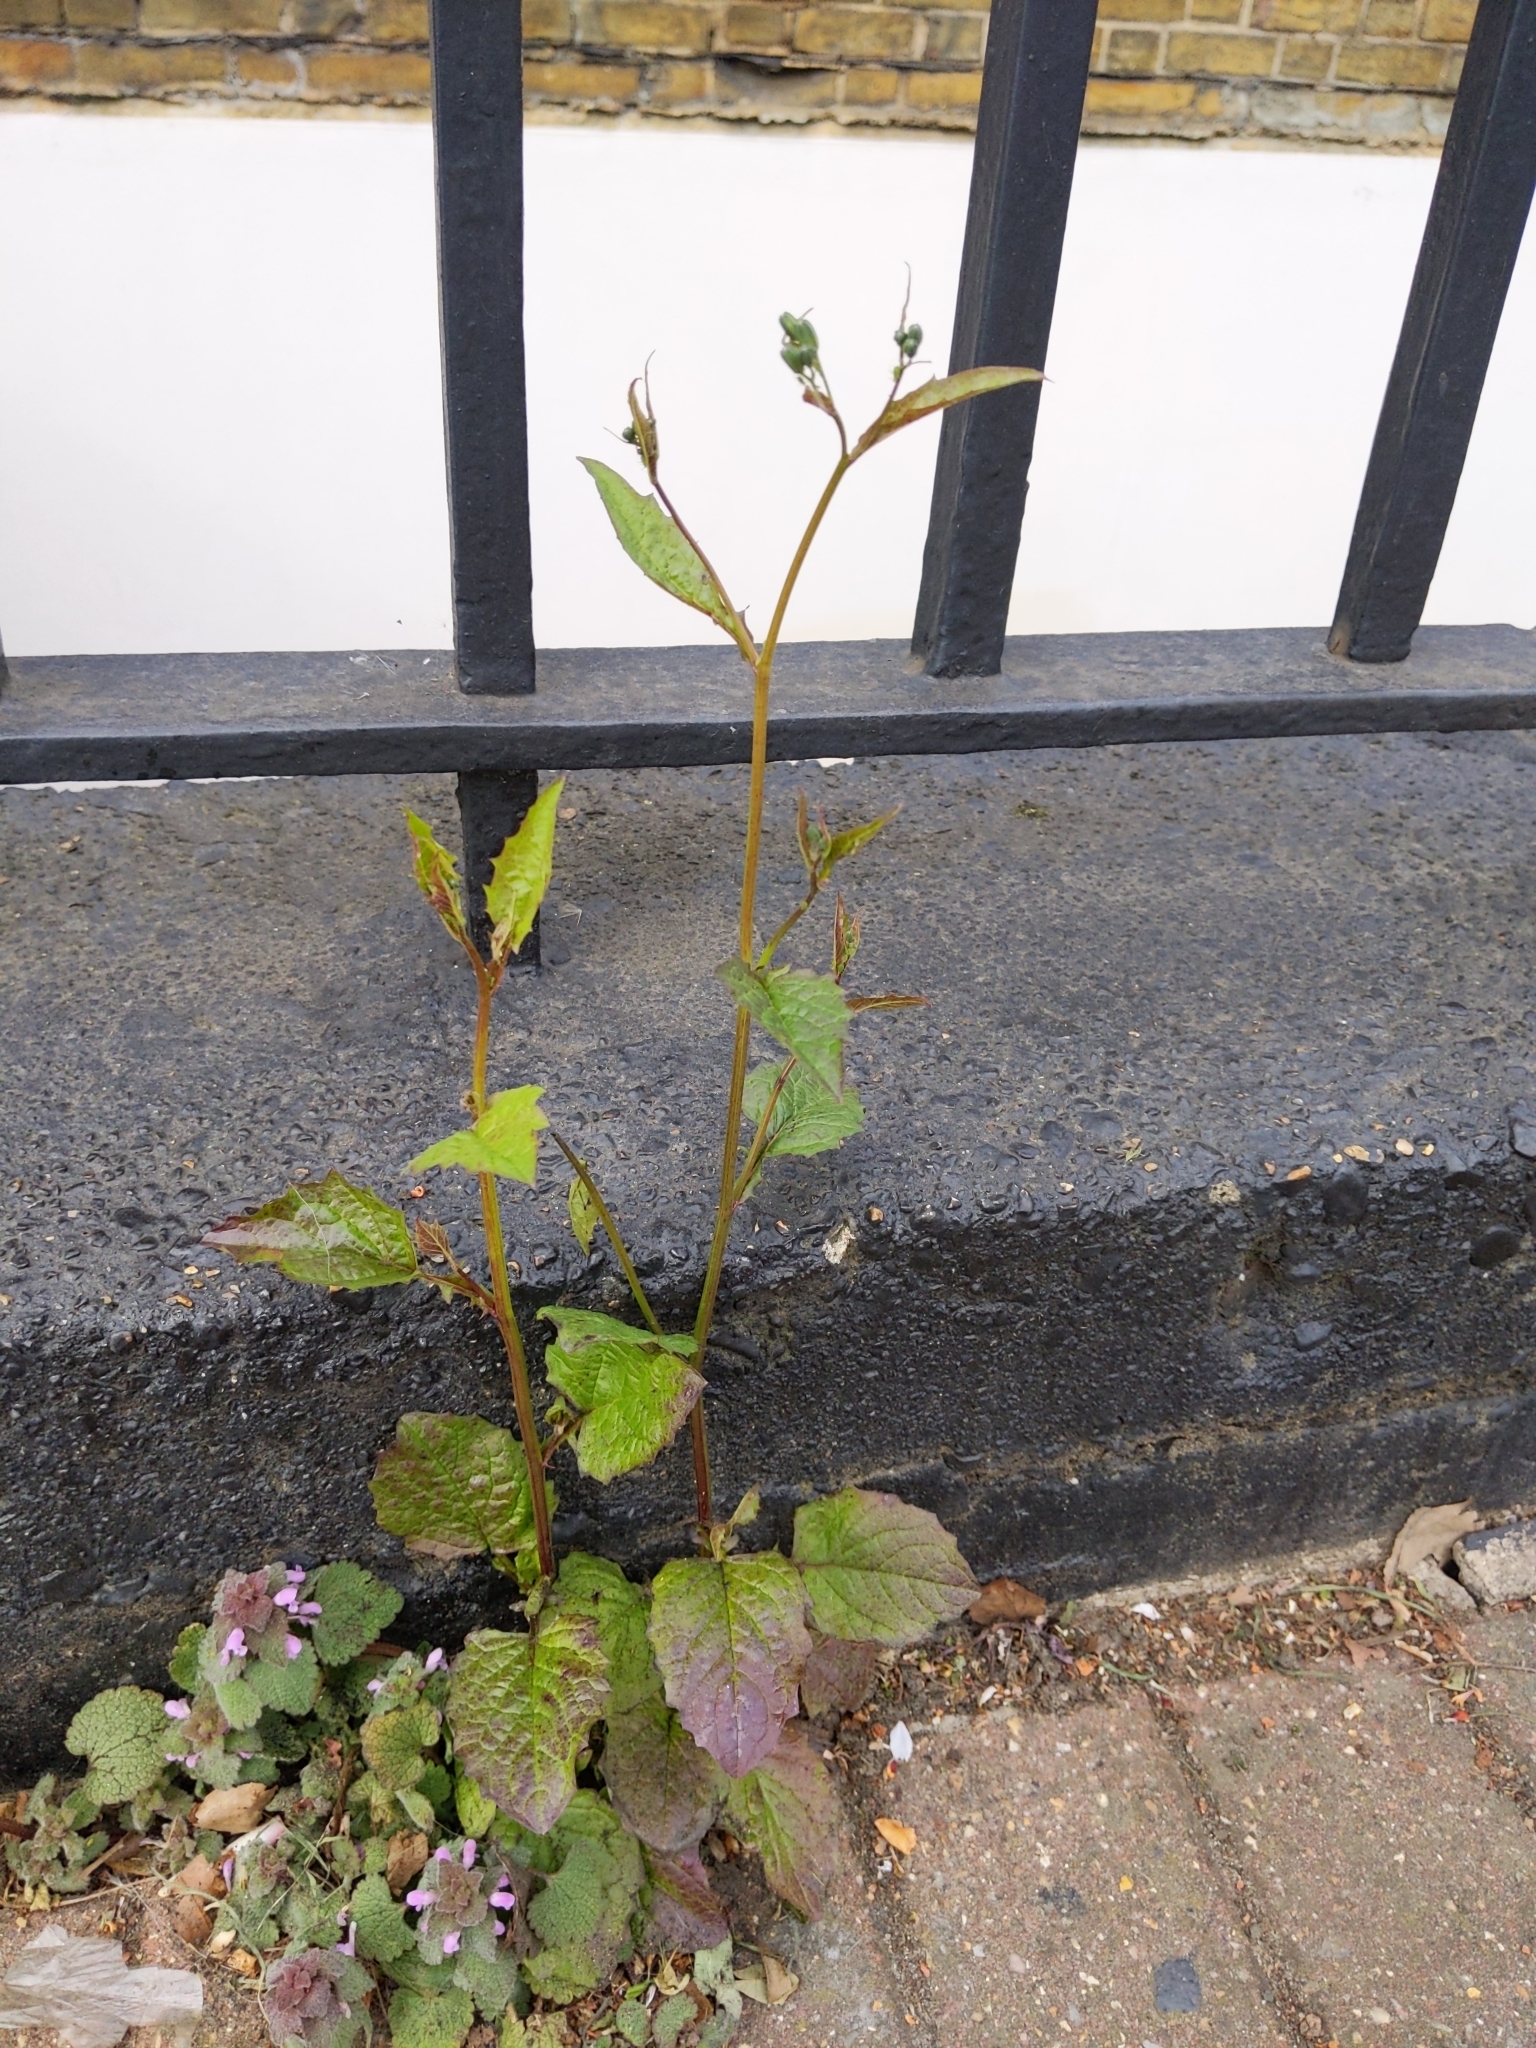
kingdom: Plantae
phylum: Tracheophyta
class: Magnoliopsida
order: Asterales
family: Asteraceae
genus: Lapsana
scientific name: Lapsana communis
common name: Nipplewort
